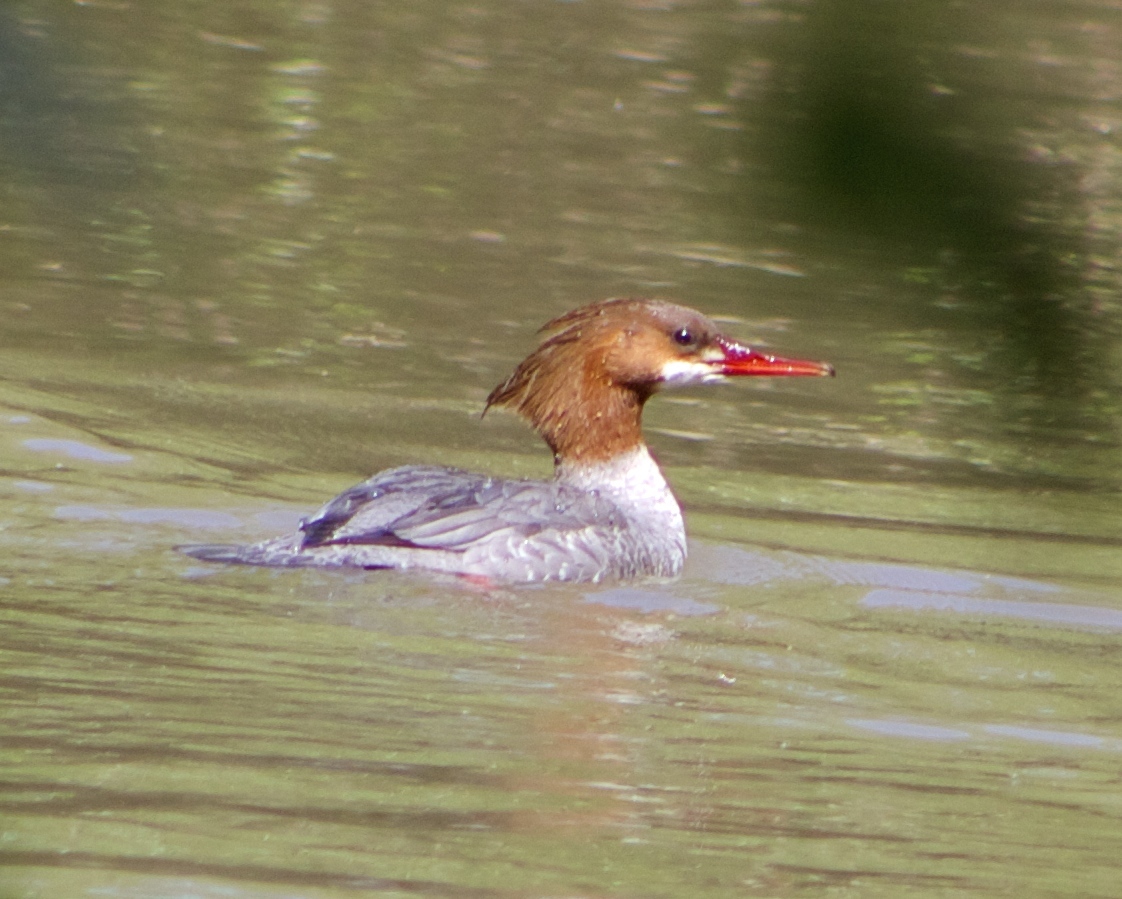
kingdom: Animalia
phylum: Chordata
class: Aves
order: Anseriformes
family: Anatidae
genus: Mergus
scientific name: Mergus merganser
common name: Common merganser
